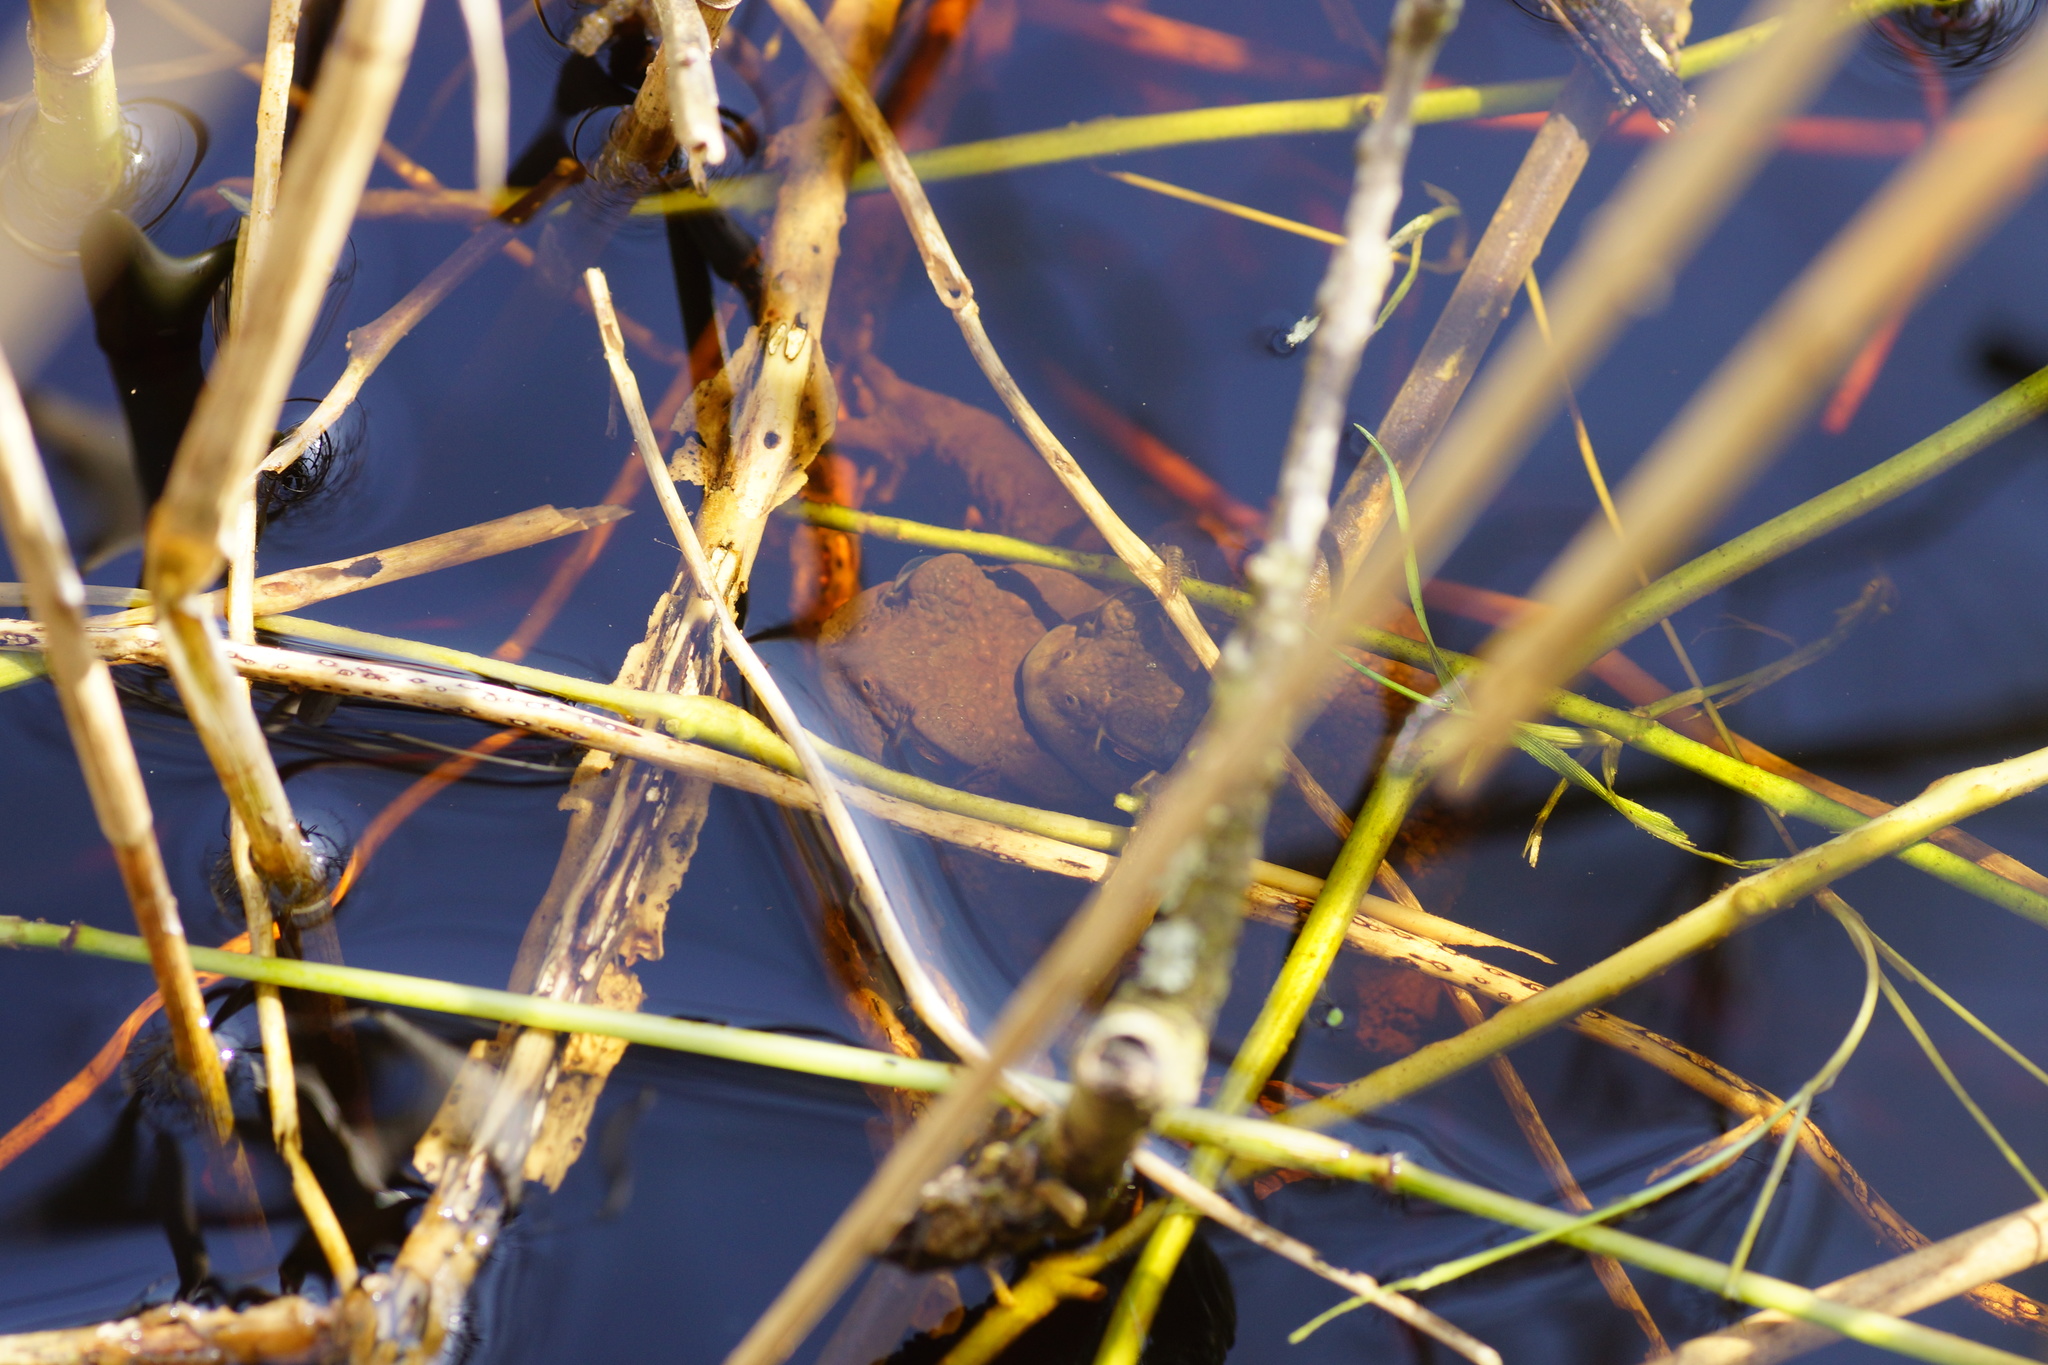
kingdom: Animalia
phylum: Chordata
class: Amphibia
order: Anura
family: Bufonidae
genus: Bufo
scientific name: Bufo bufo
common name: Common toad
